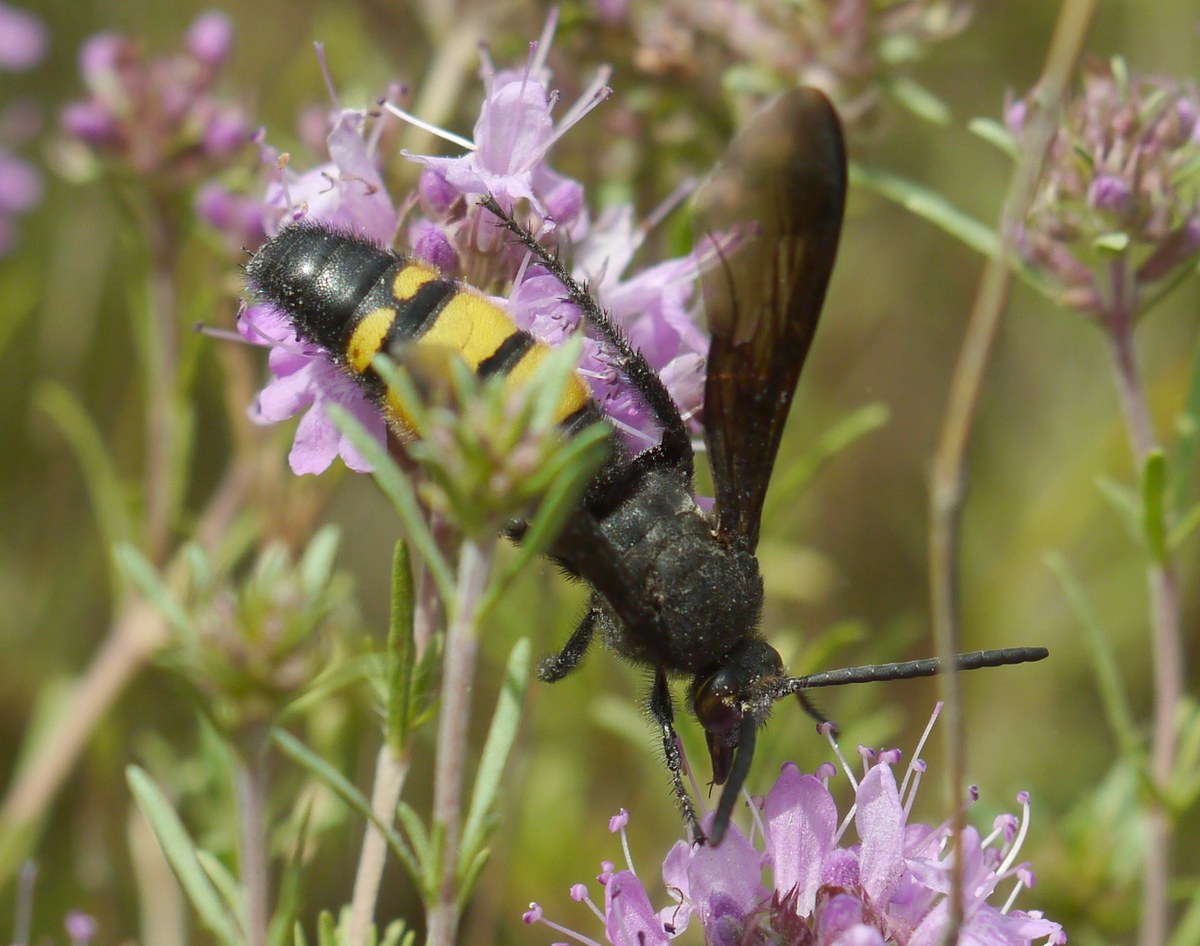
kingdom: Animalia
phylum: Arthropoda
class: Insecta
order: Hymenoptera
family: Vespidae
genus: Vespa
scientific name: Vespa galbula
